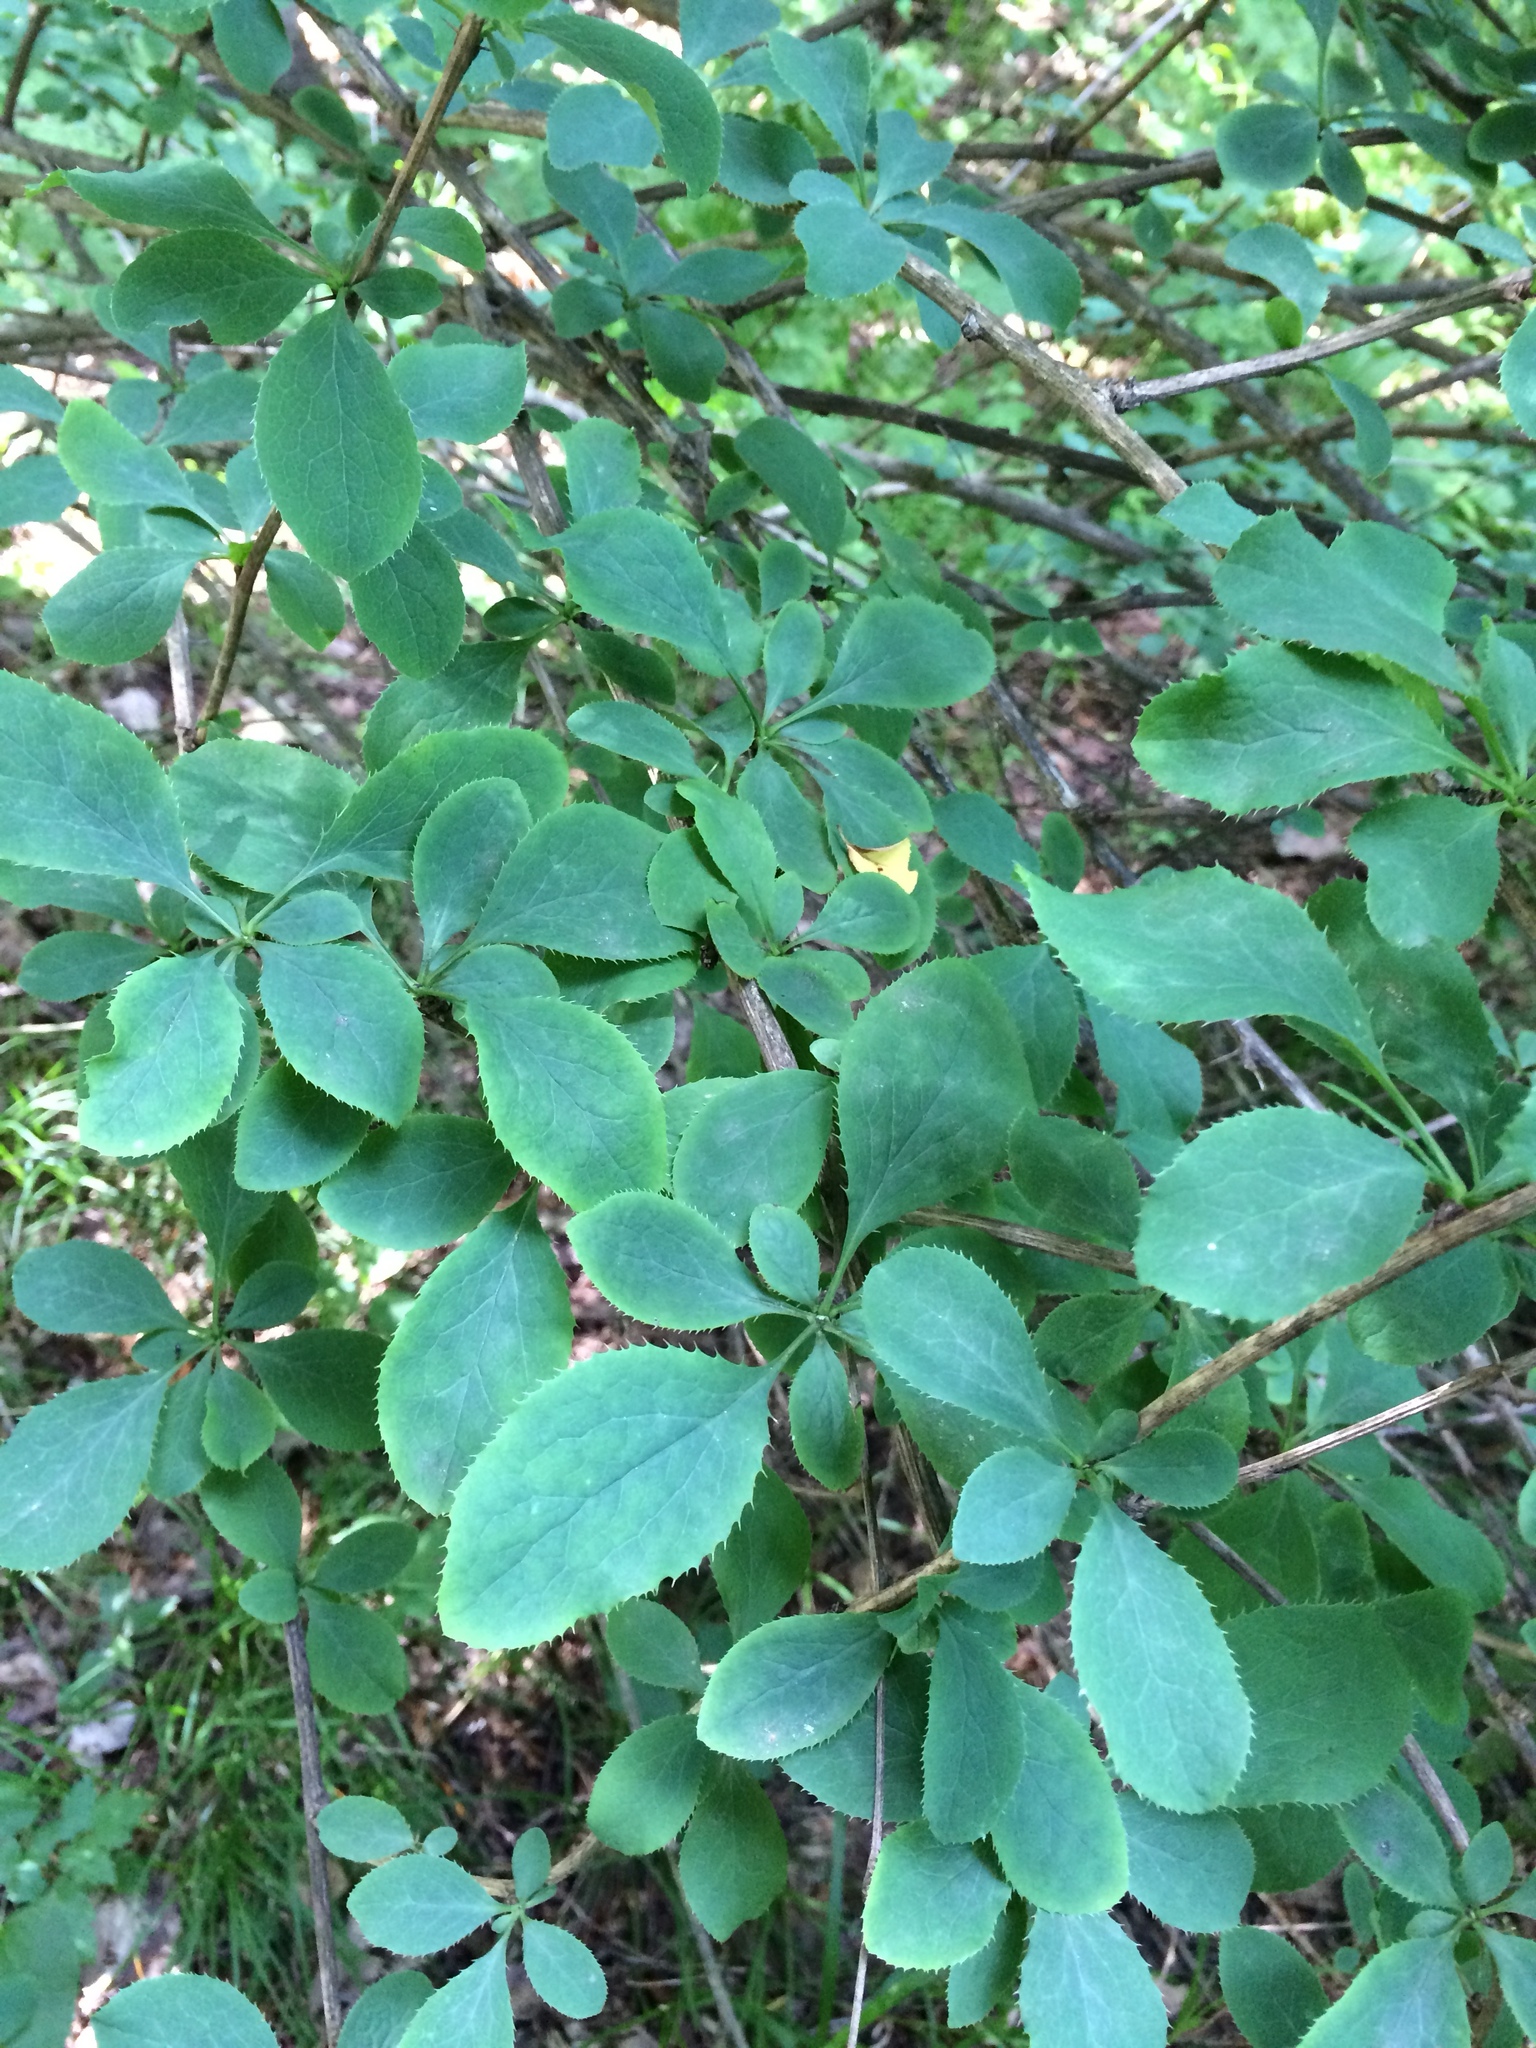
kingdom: Plantae
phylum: Tracheophyta
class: Magnoliopsida
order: Ranunculales
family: Berberidaceae
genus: Berberis
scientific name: Berberis vulgaris
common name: Barberry
